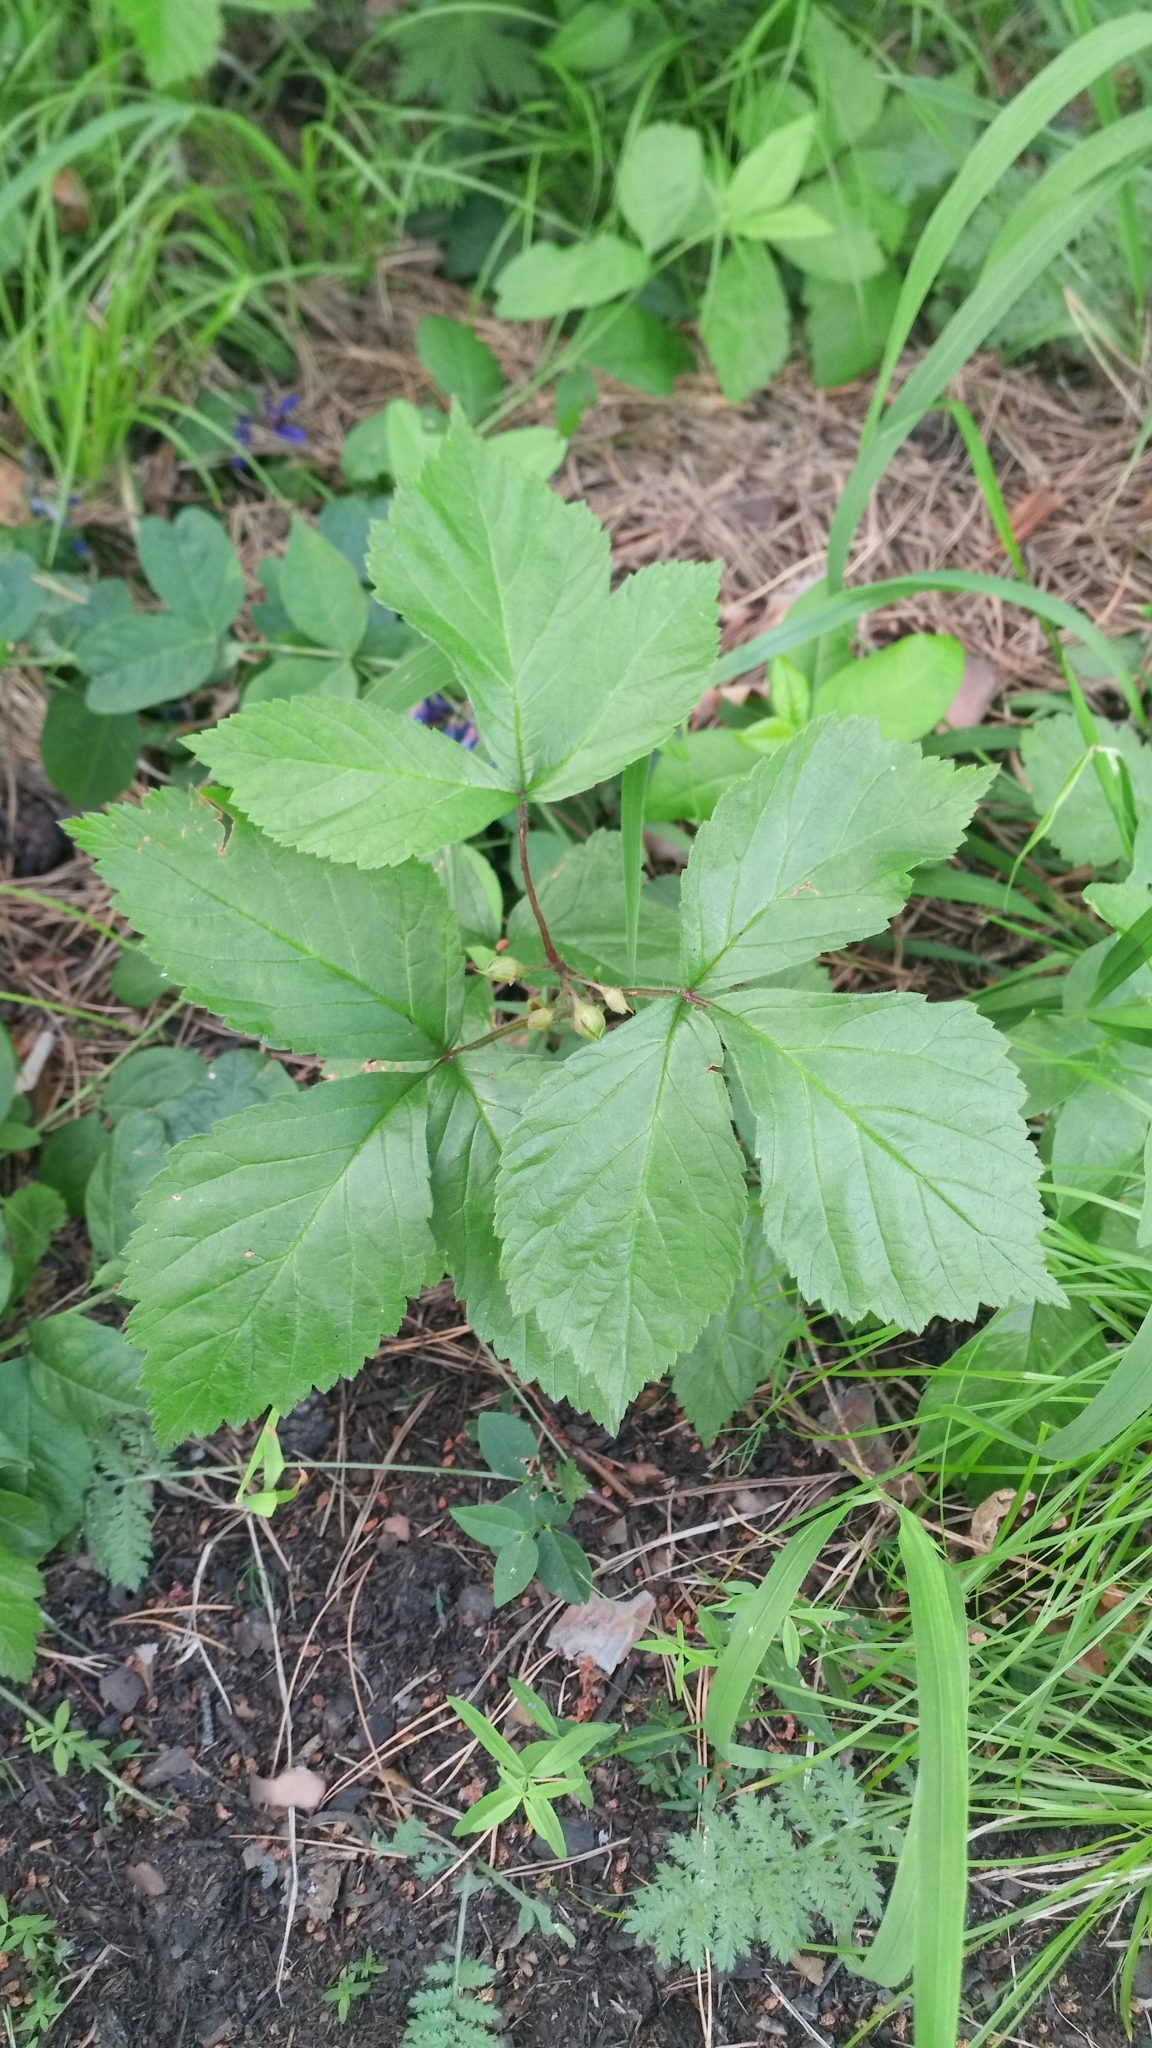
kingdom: Plantae
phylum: Tracheophyta
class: Magnoliopsida
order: Rosales
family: Rosaceae
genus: Rubus
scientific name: Rubus saxatilis
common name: Stone bramble
